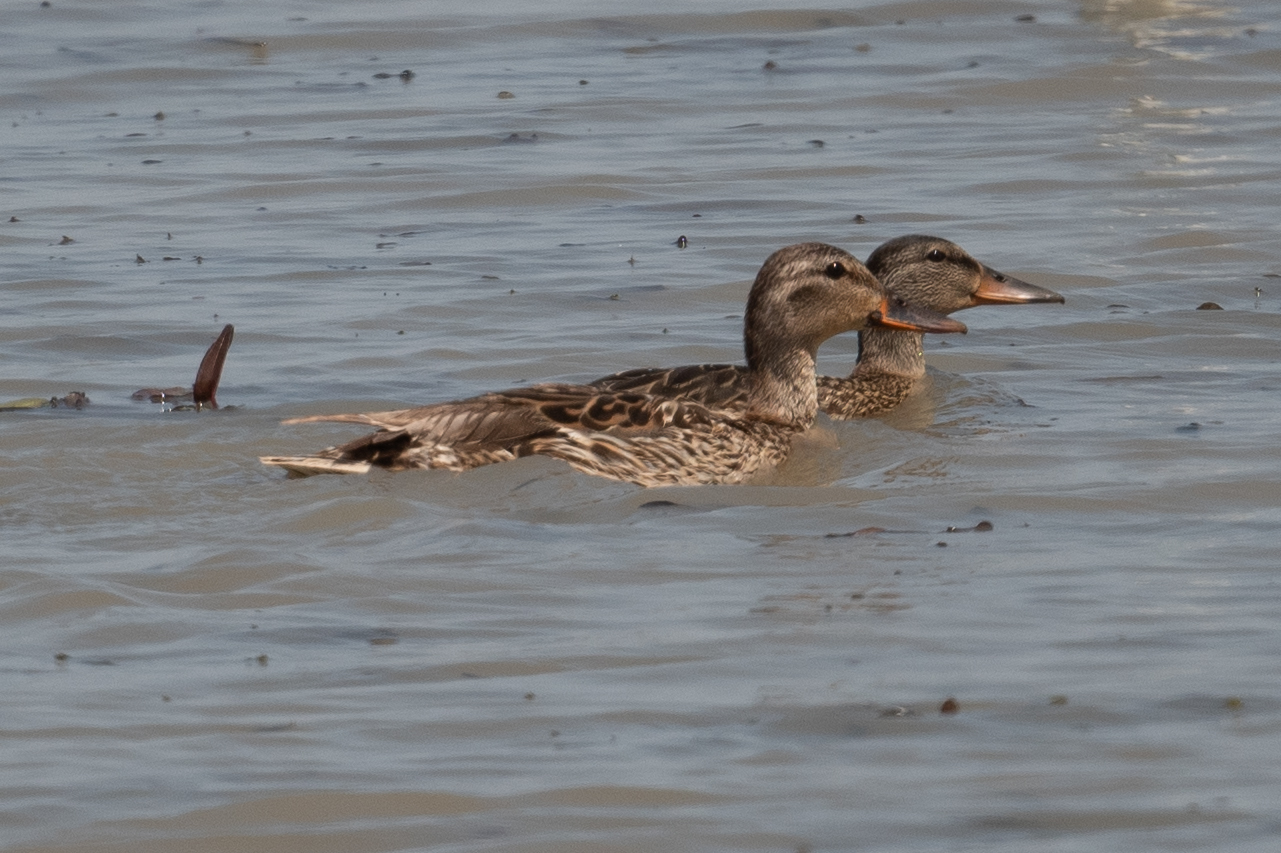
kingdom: Animalia
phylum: Chordata
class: Aves
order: Anseriformes
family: Anatidae
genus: Anas
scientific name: Anas platyrhynchos
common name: Mallard
